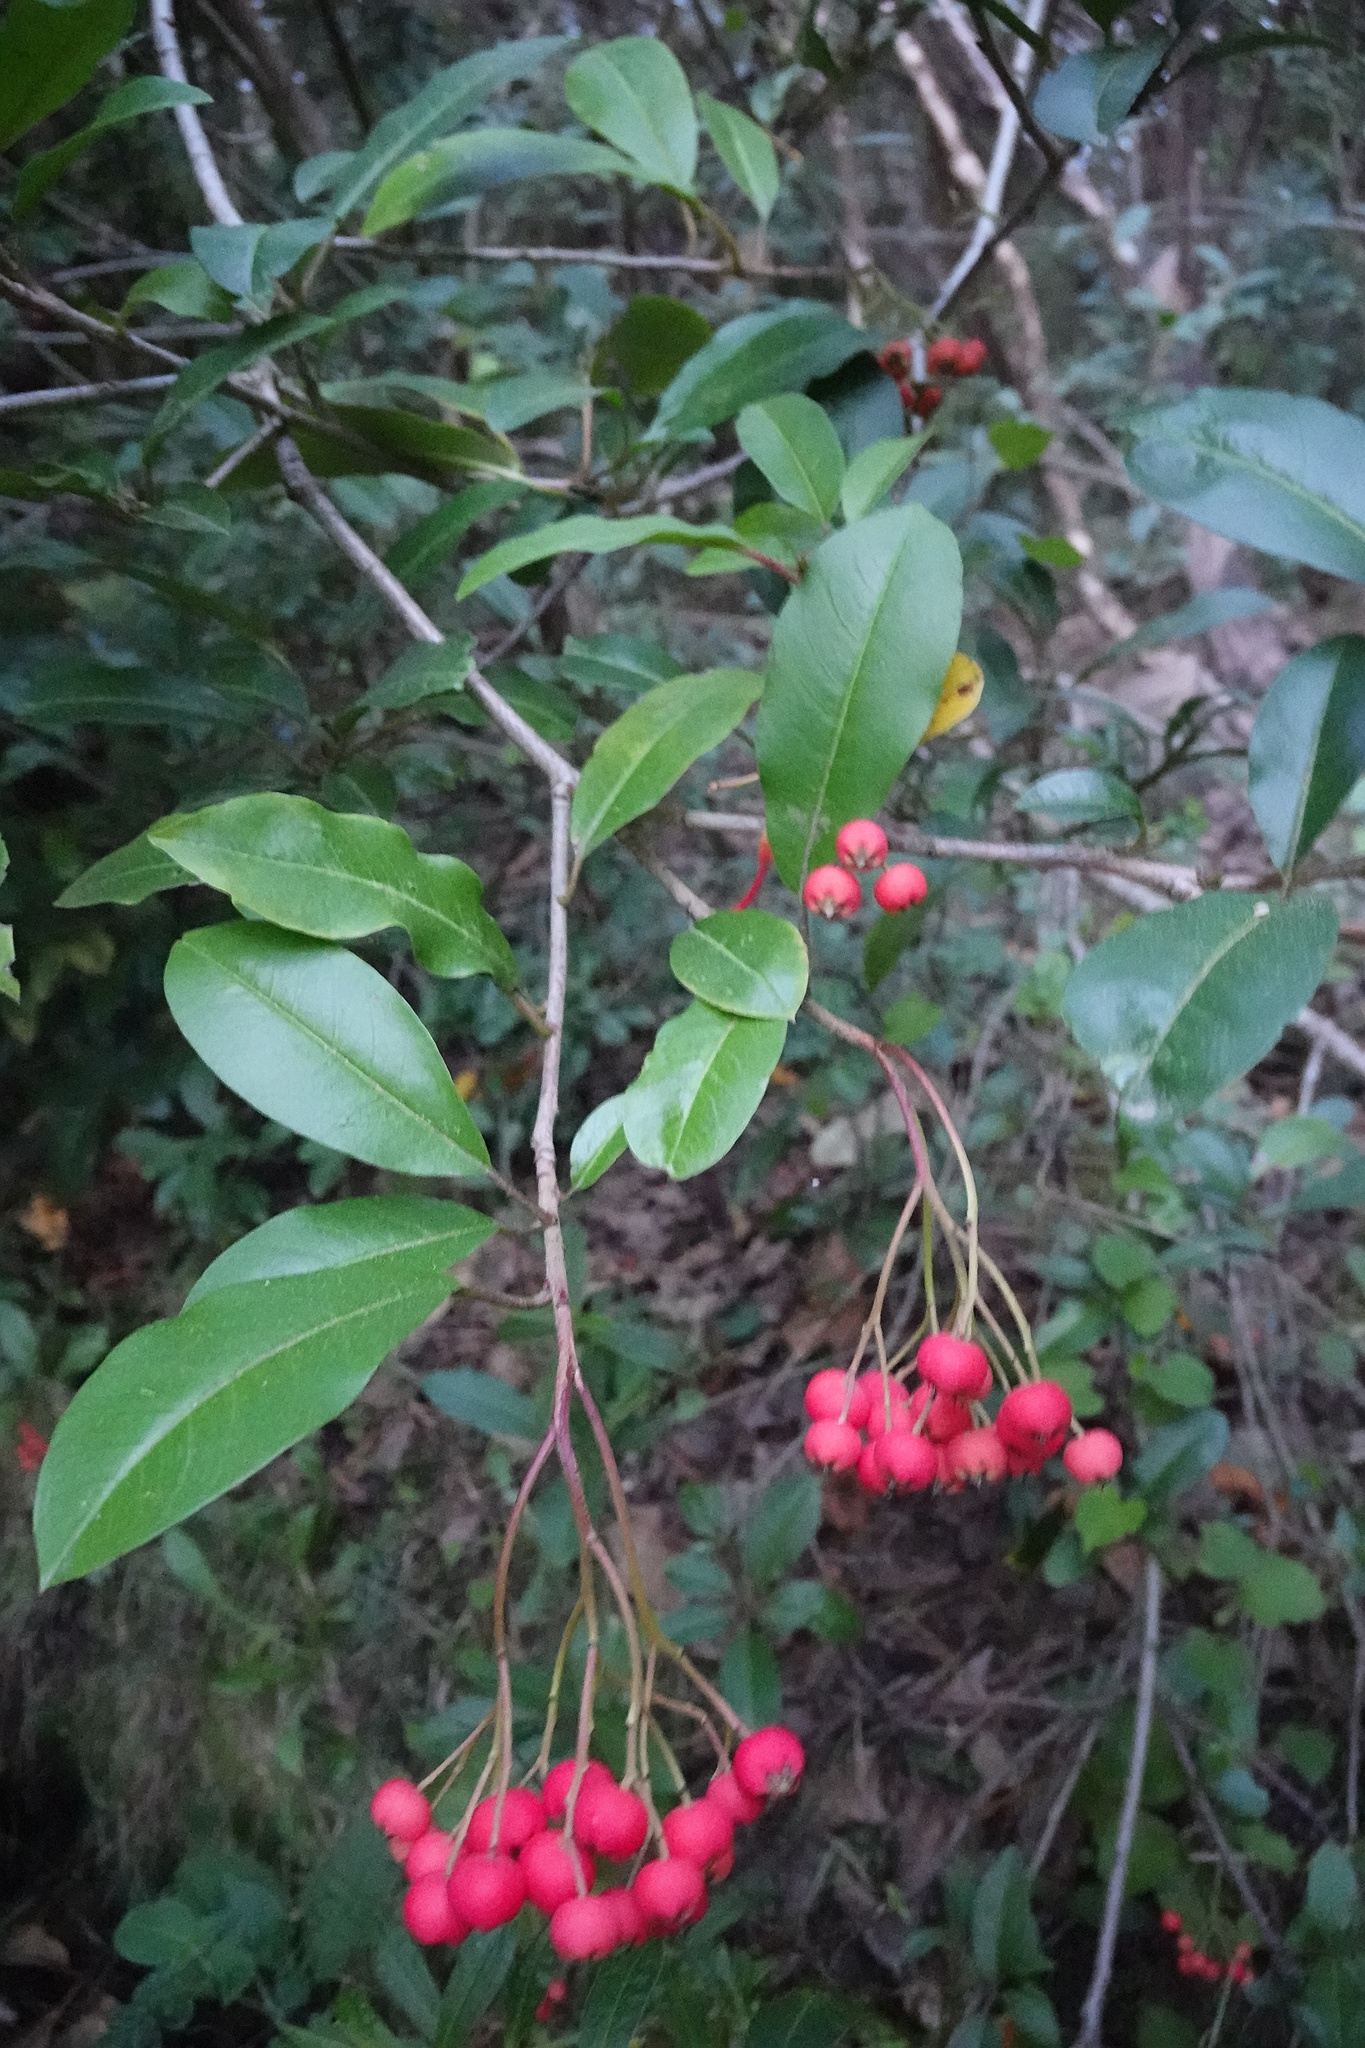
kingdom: Plantae
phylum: Tracheophyta
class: Magnoliopsida
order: Rosales
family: Rosaceae
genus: Stranvaesia
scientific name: Stranvaesia davidiana
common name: Chinese photinia
